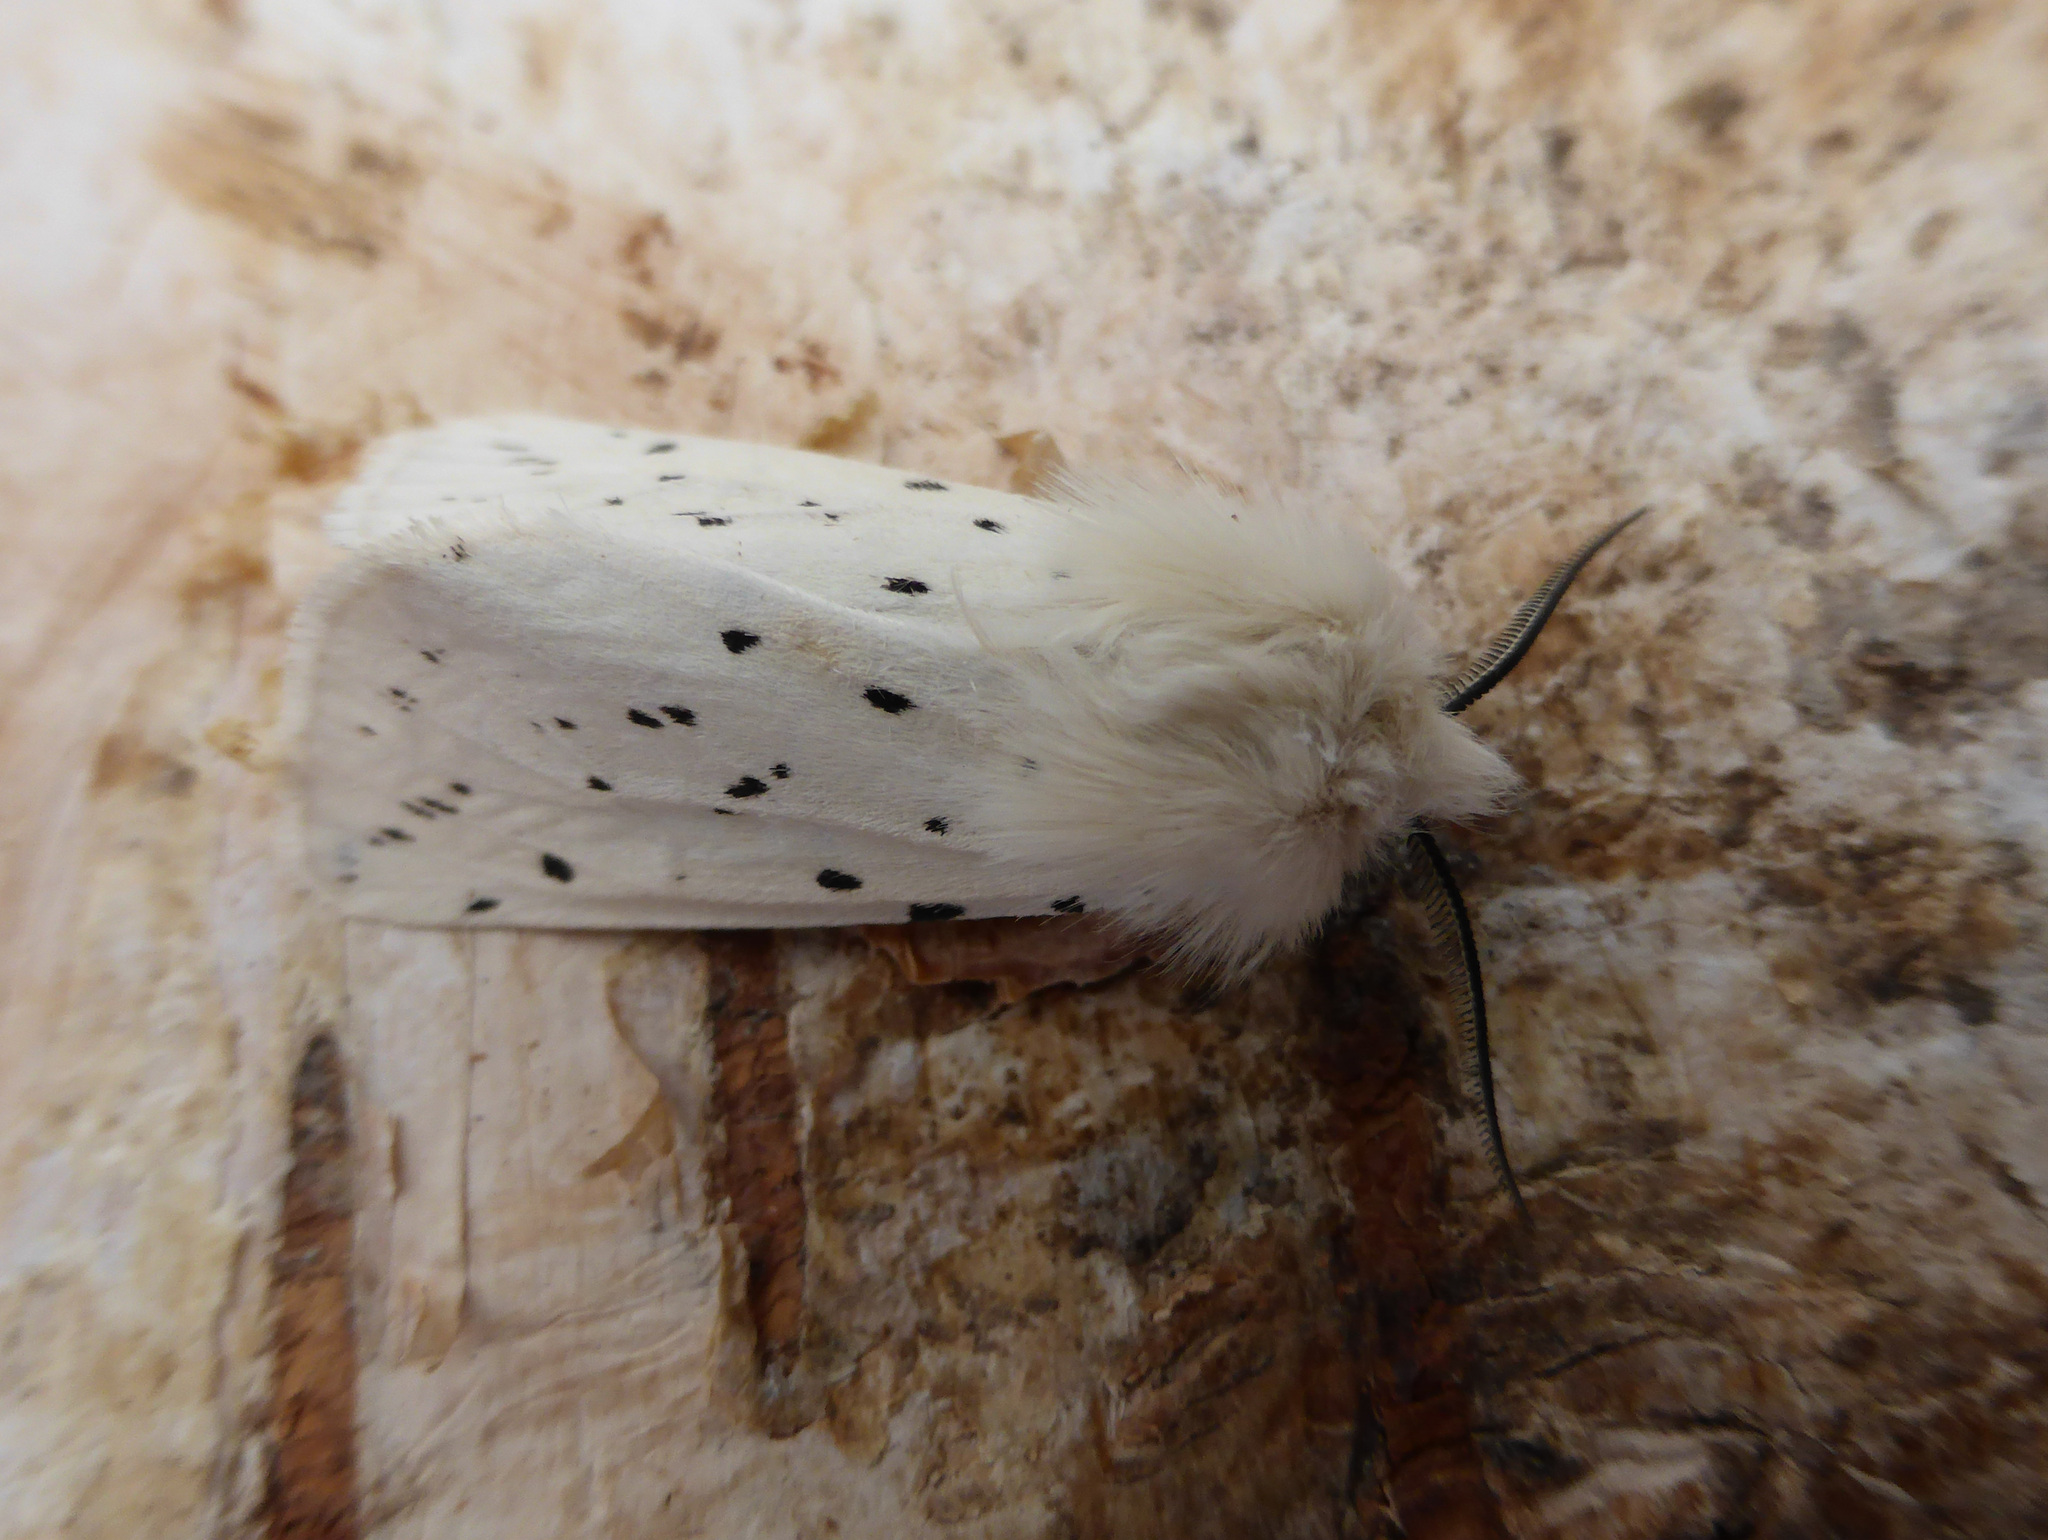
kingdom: Animalia
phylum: Arthropoda
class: Insecta
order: Lepidoptera
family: Erebidae
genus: Spilosoma
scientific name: Spilosoma lubricipeda
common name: White ermine
